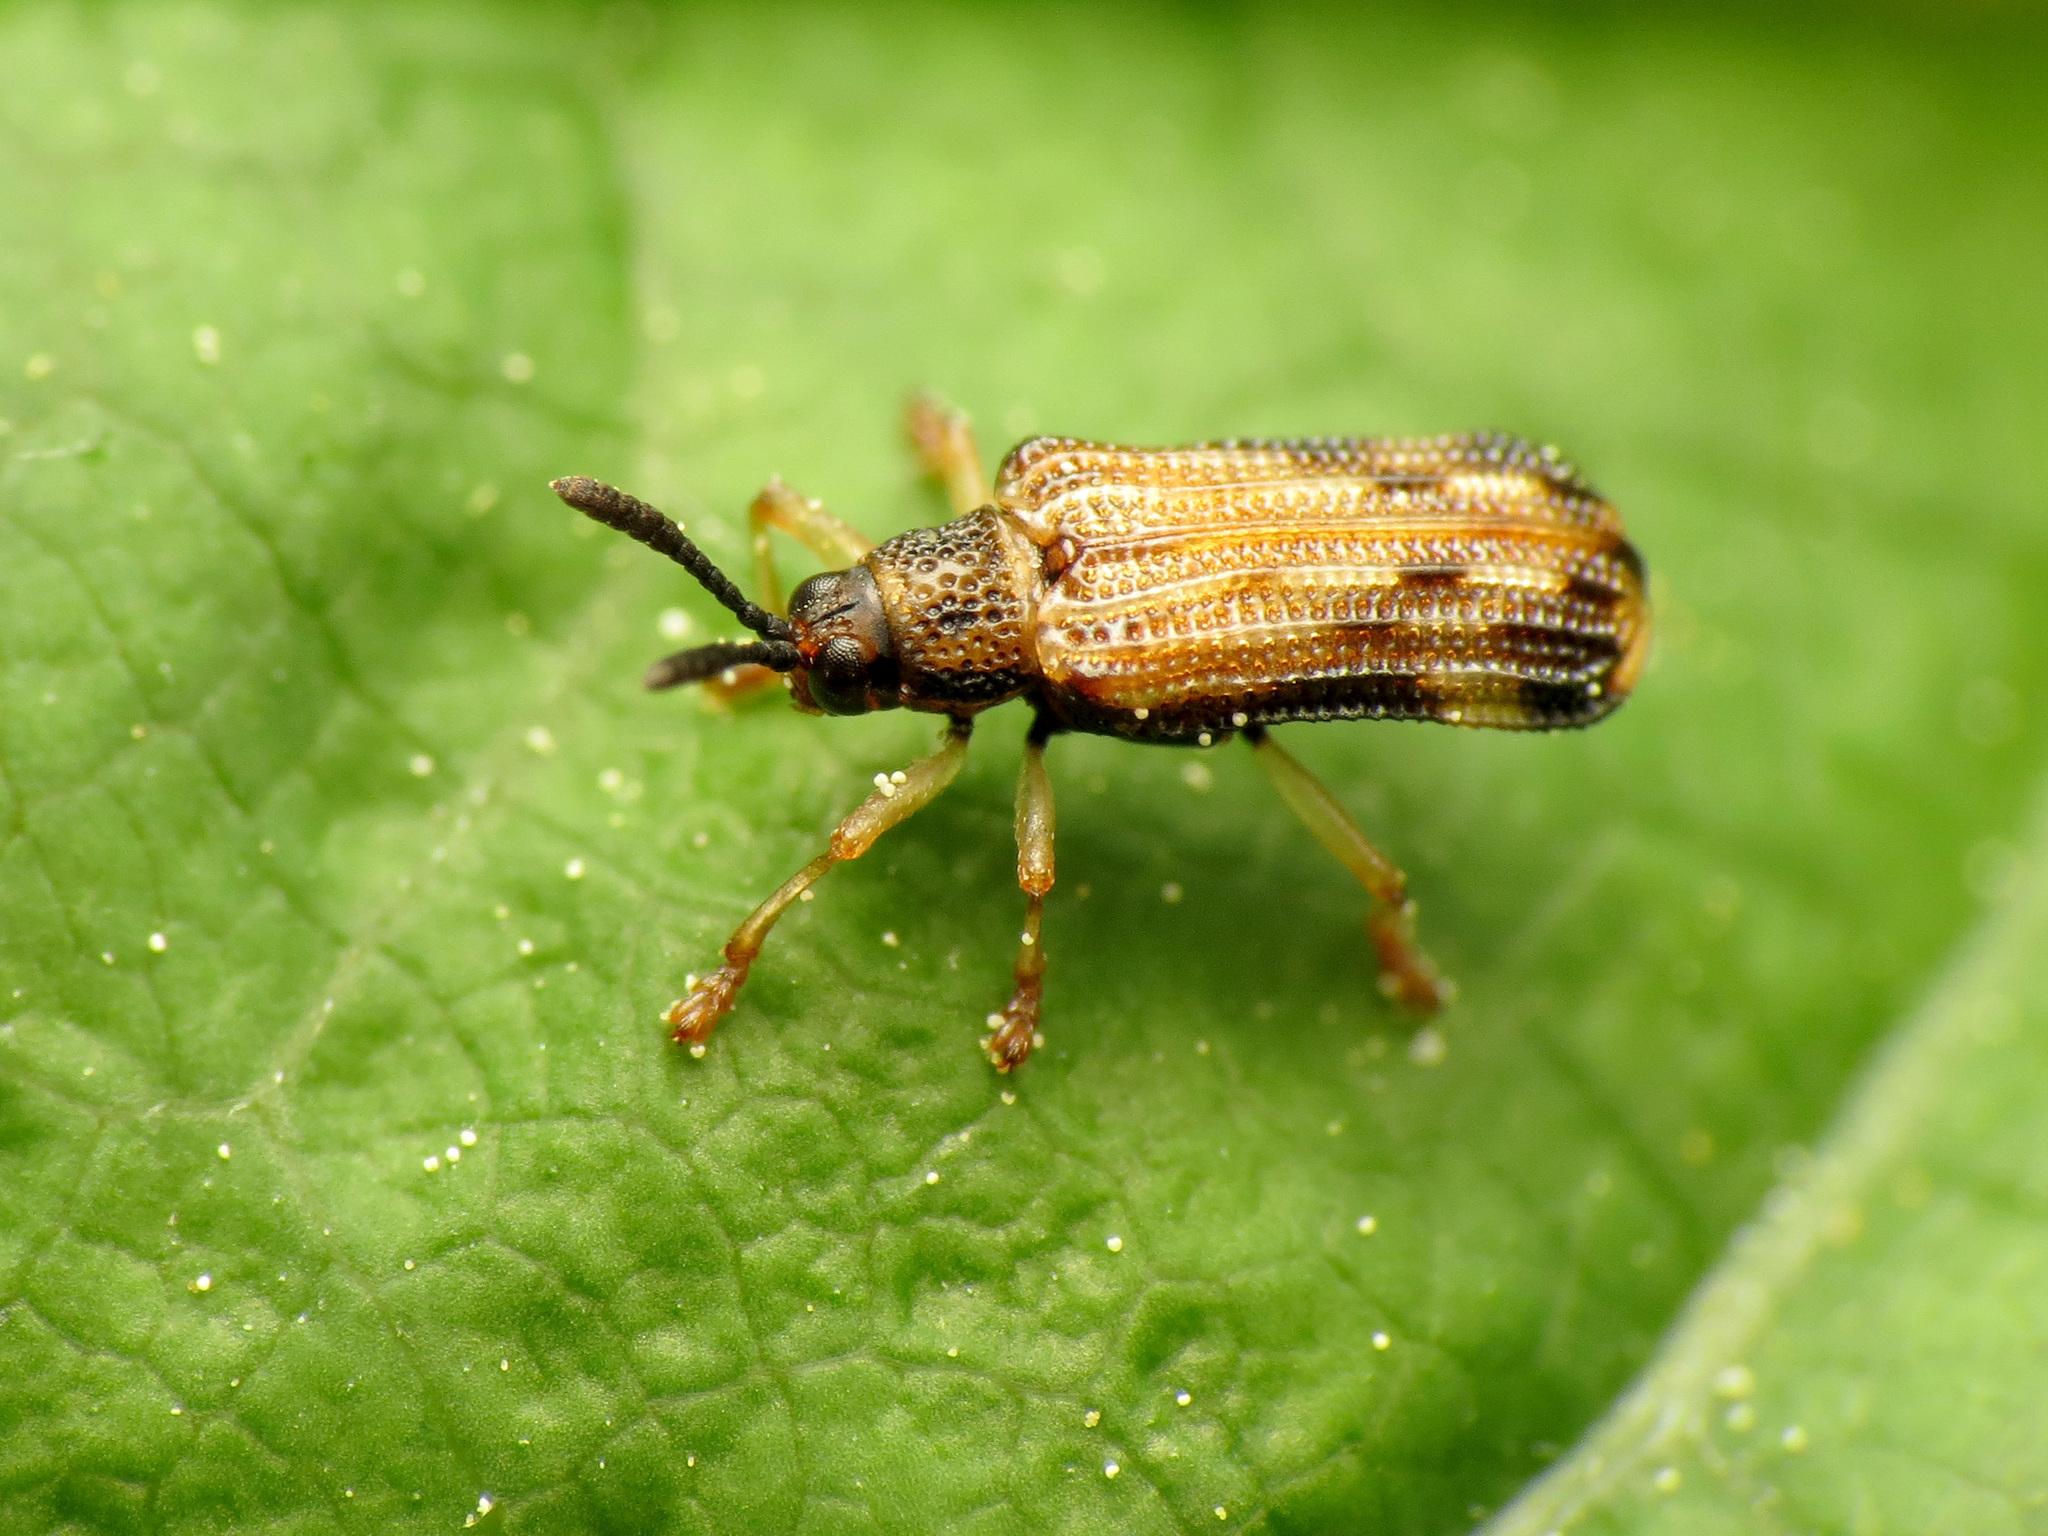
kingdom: Animalia
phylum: Arthropoda
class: Insecta
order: Coleoptera
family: Chrysomelidae
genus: Sumitrosis
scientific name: Sumitrosis inaequalis
